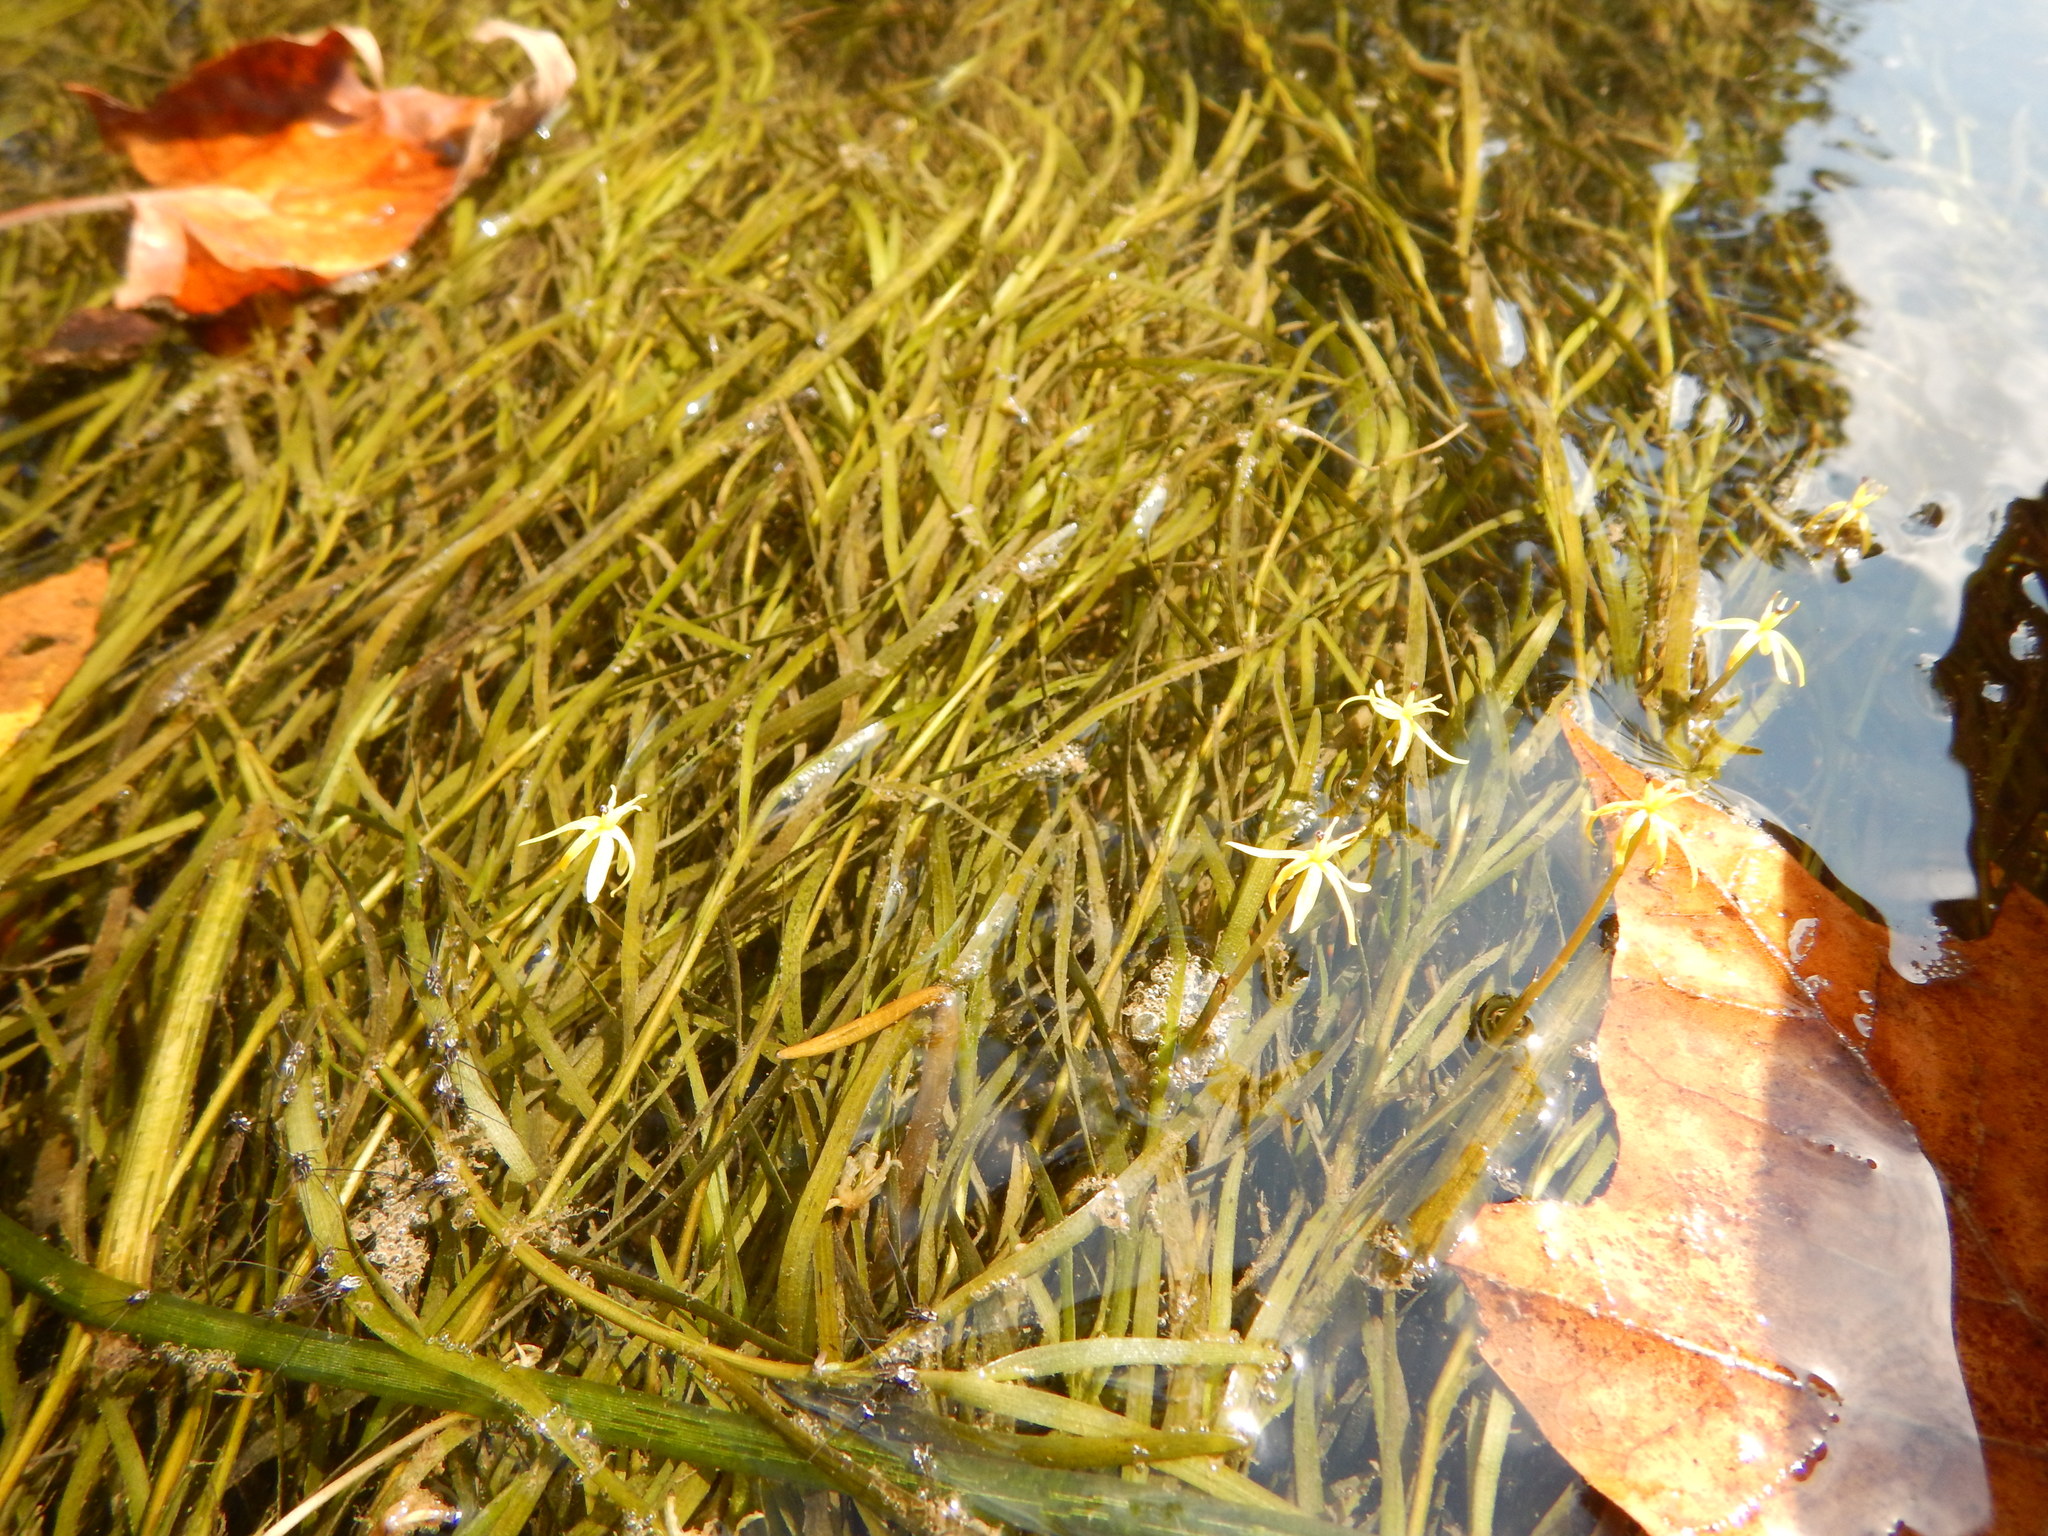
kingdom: Plantae
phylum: Tracheophyta
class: Liliopsida
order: Commelinales
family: Pontederiaceae
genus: Heteranthera
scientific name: Heteranthera dubia
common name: Grass-leaved mud plantain
